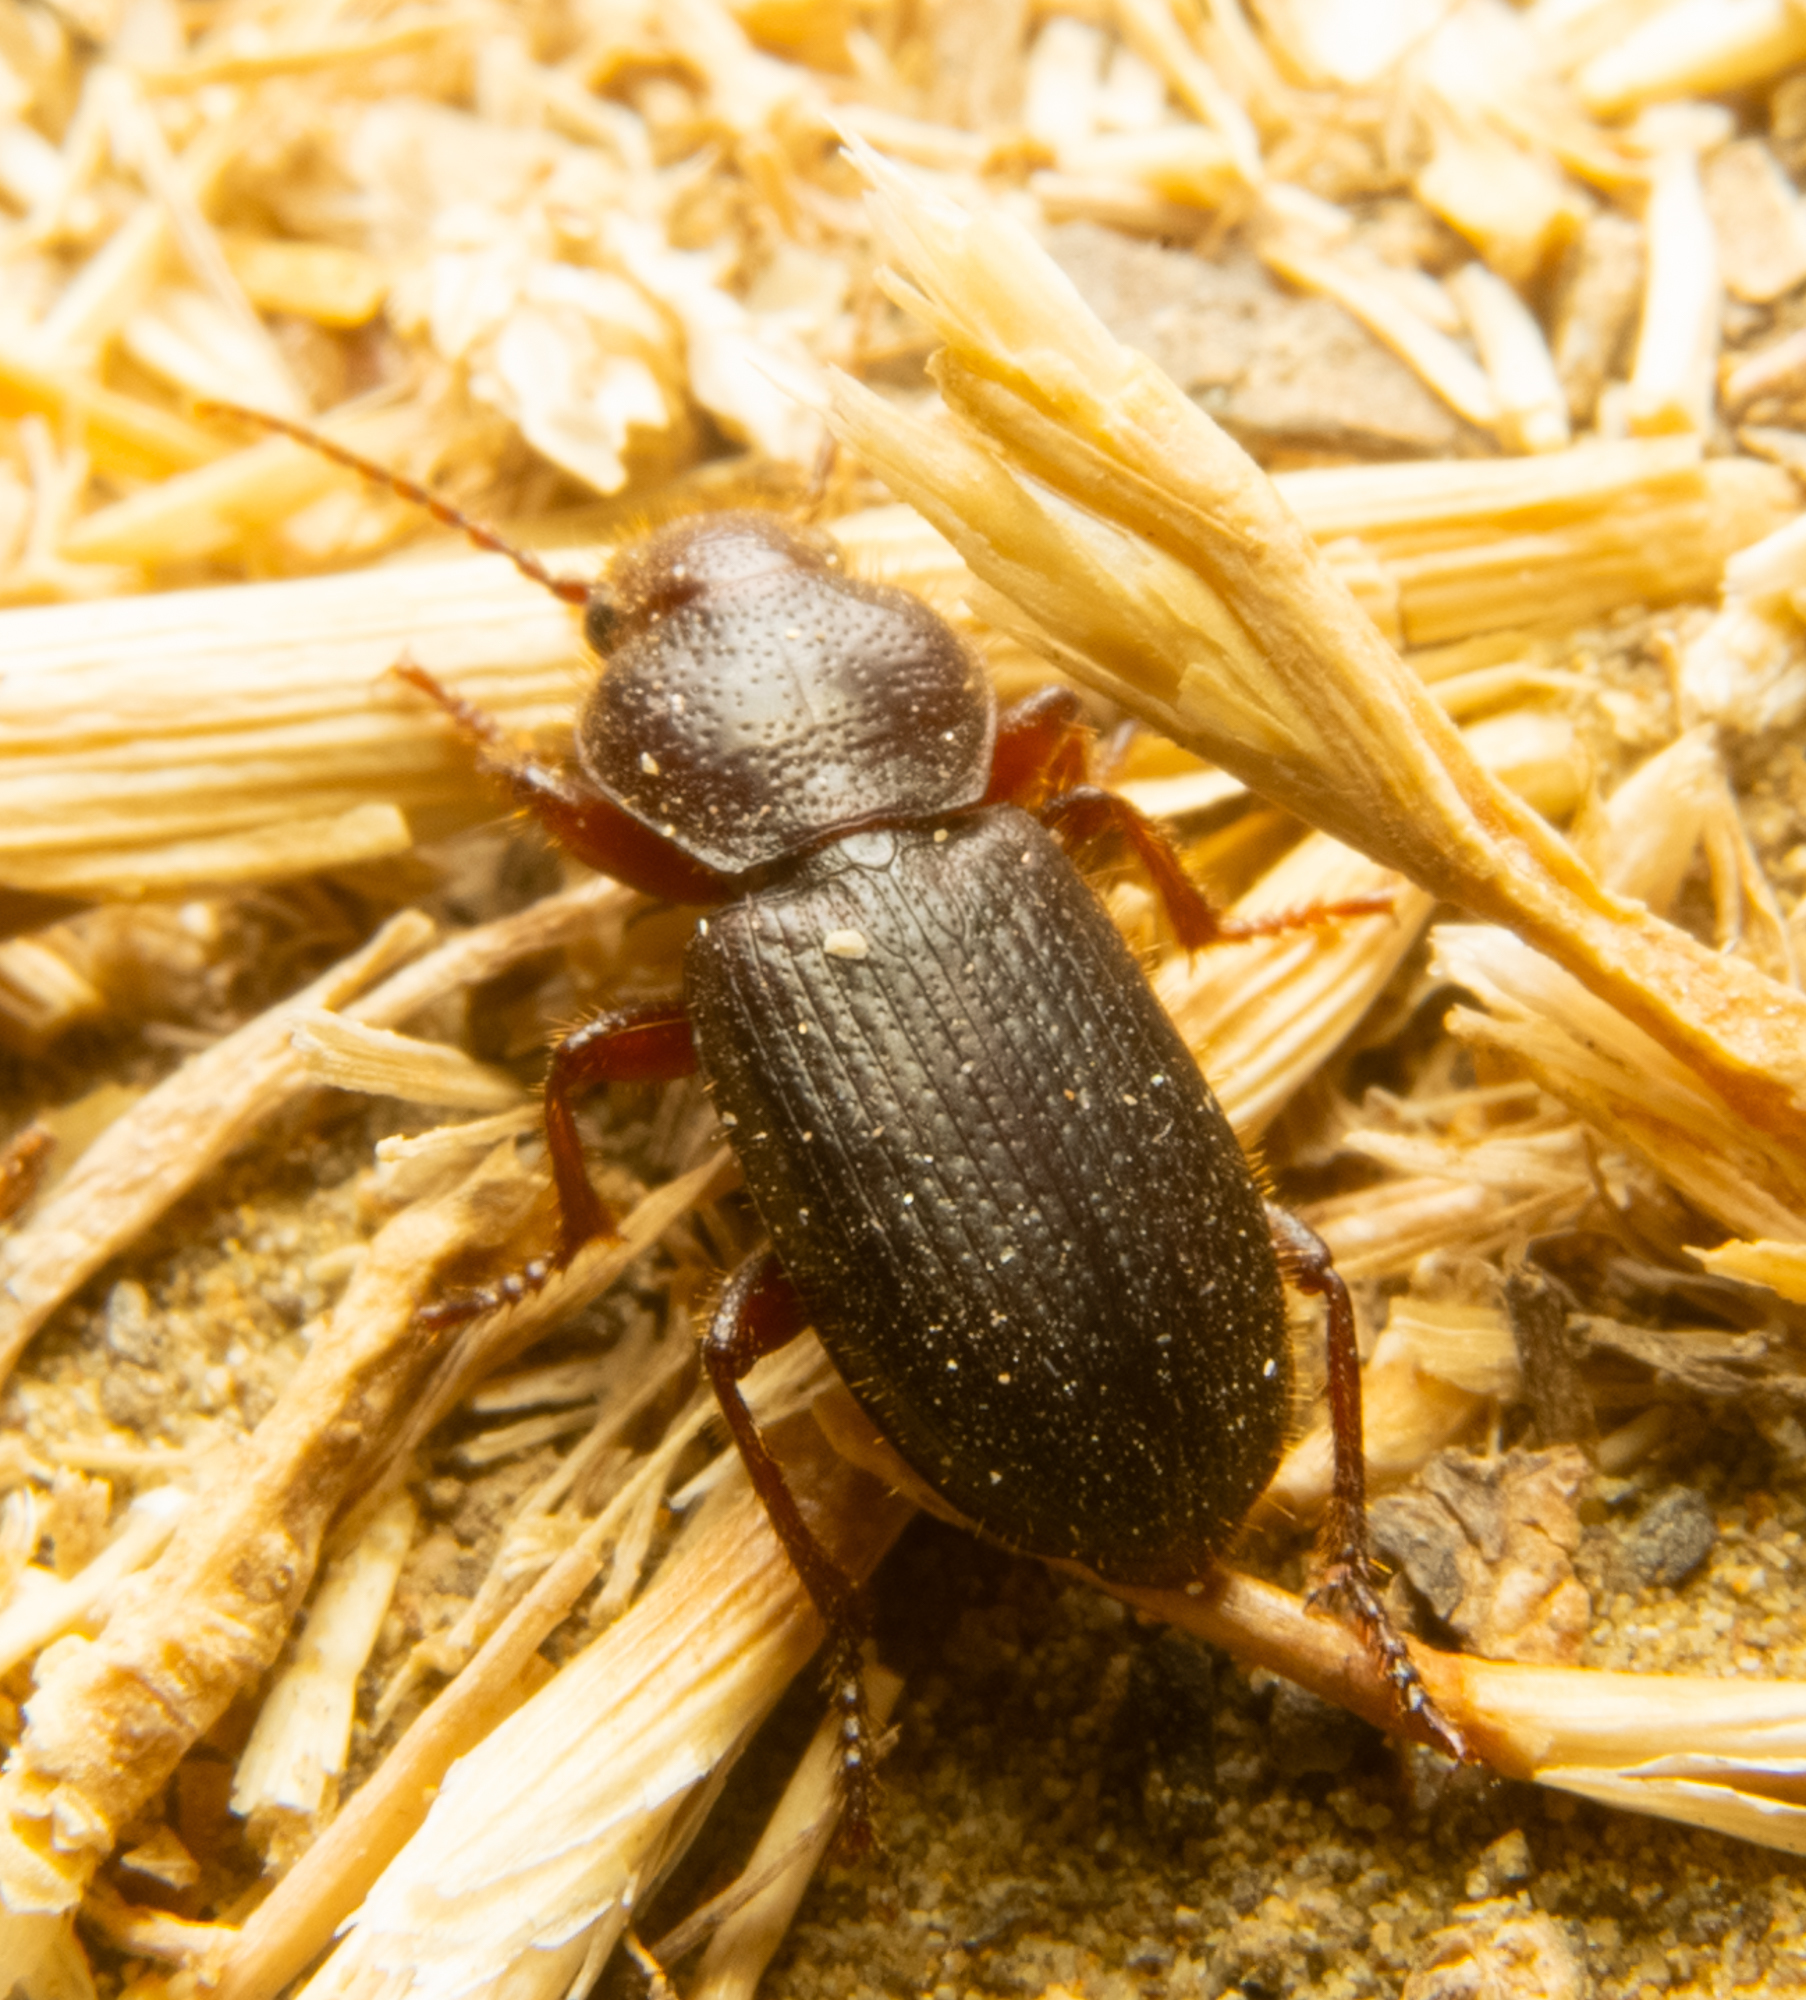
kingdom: Animalia
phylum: Arthropoda
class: Insecta
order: Coleoptera
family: Carabidae
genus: Dicheirus
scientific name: Dicheirus dilatatus
